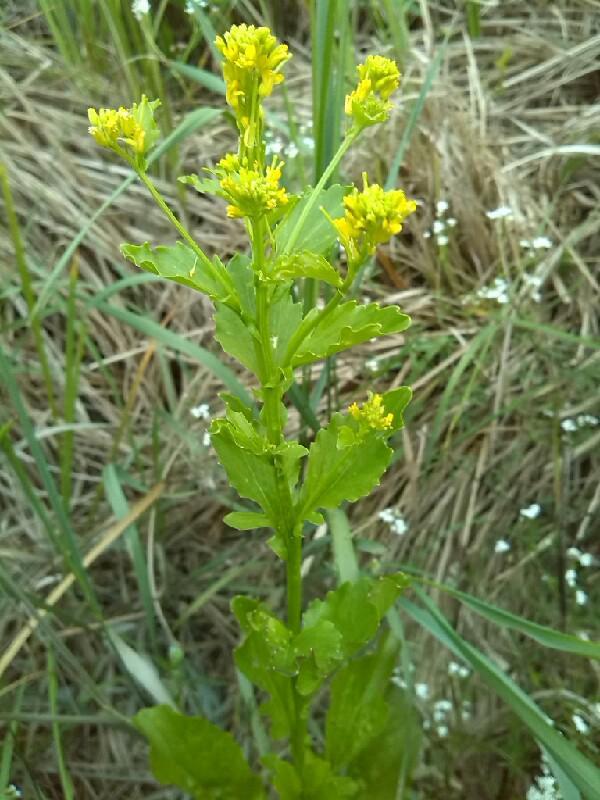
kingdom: Plantae
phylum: Tracheophyta
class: Magnoliopsida
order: Brassicales
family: Brassicaceae
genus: Barbarea
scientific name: Barbarea vulgaris
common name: Cressy-greens
